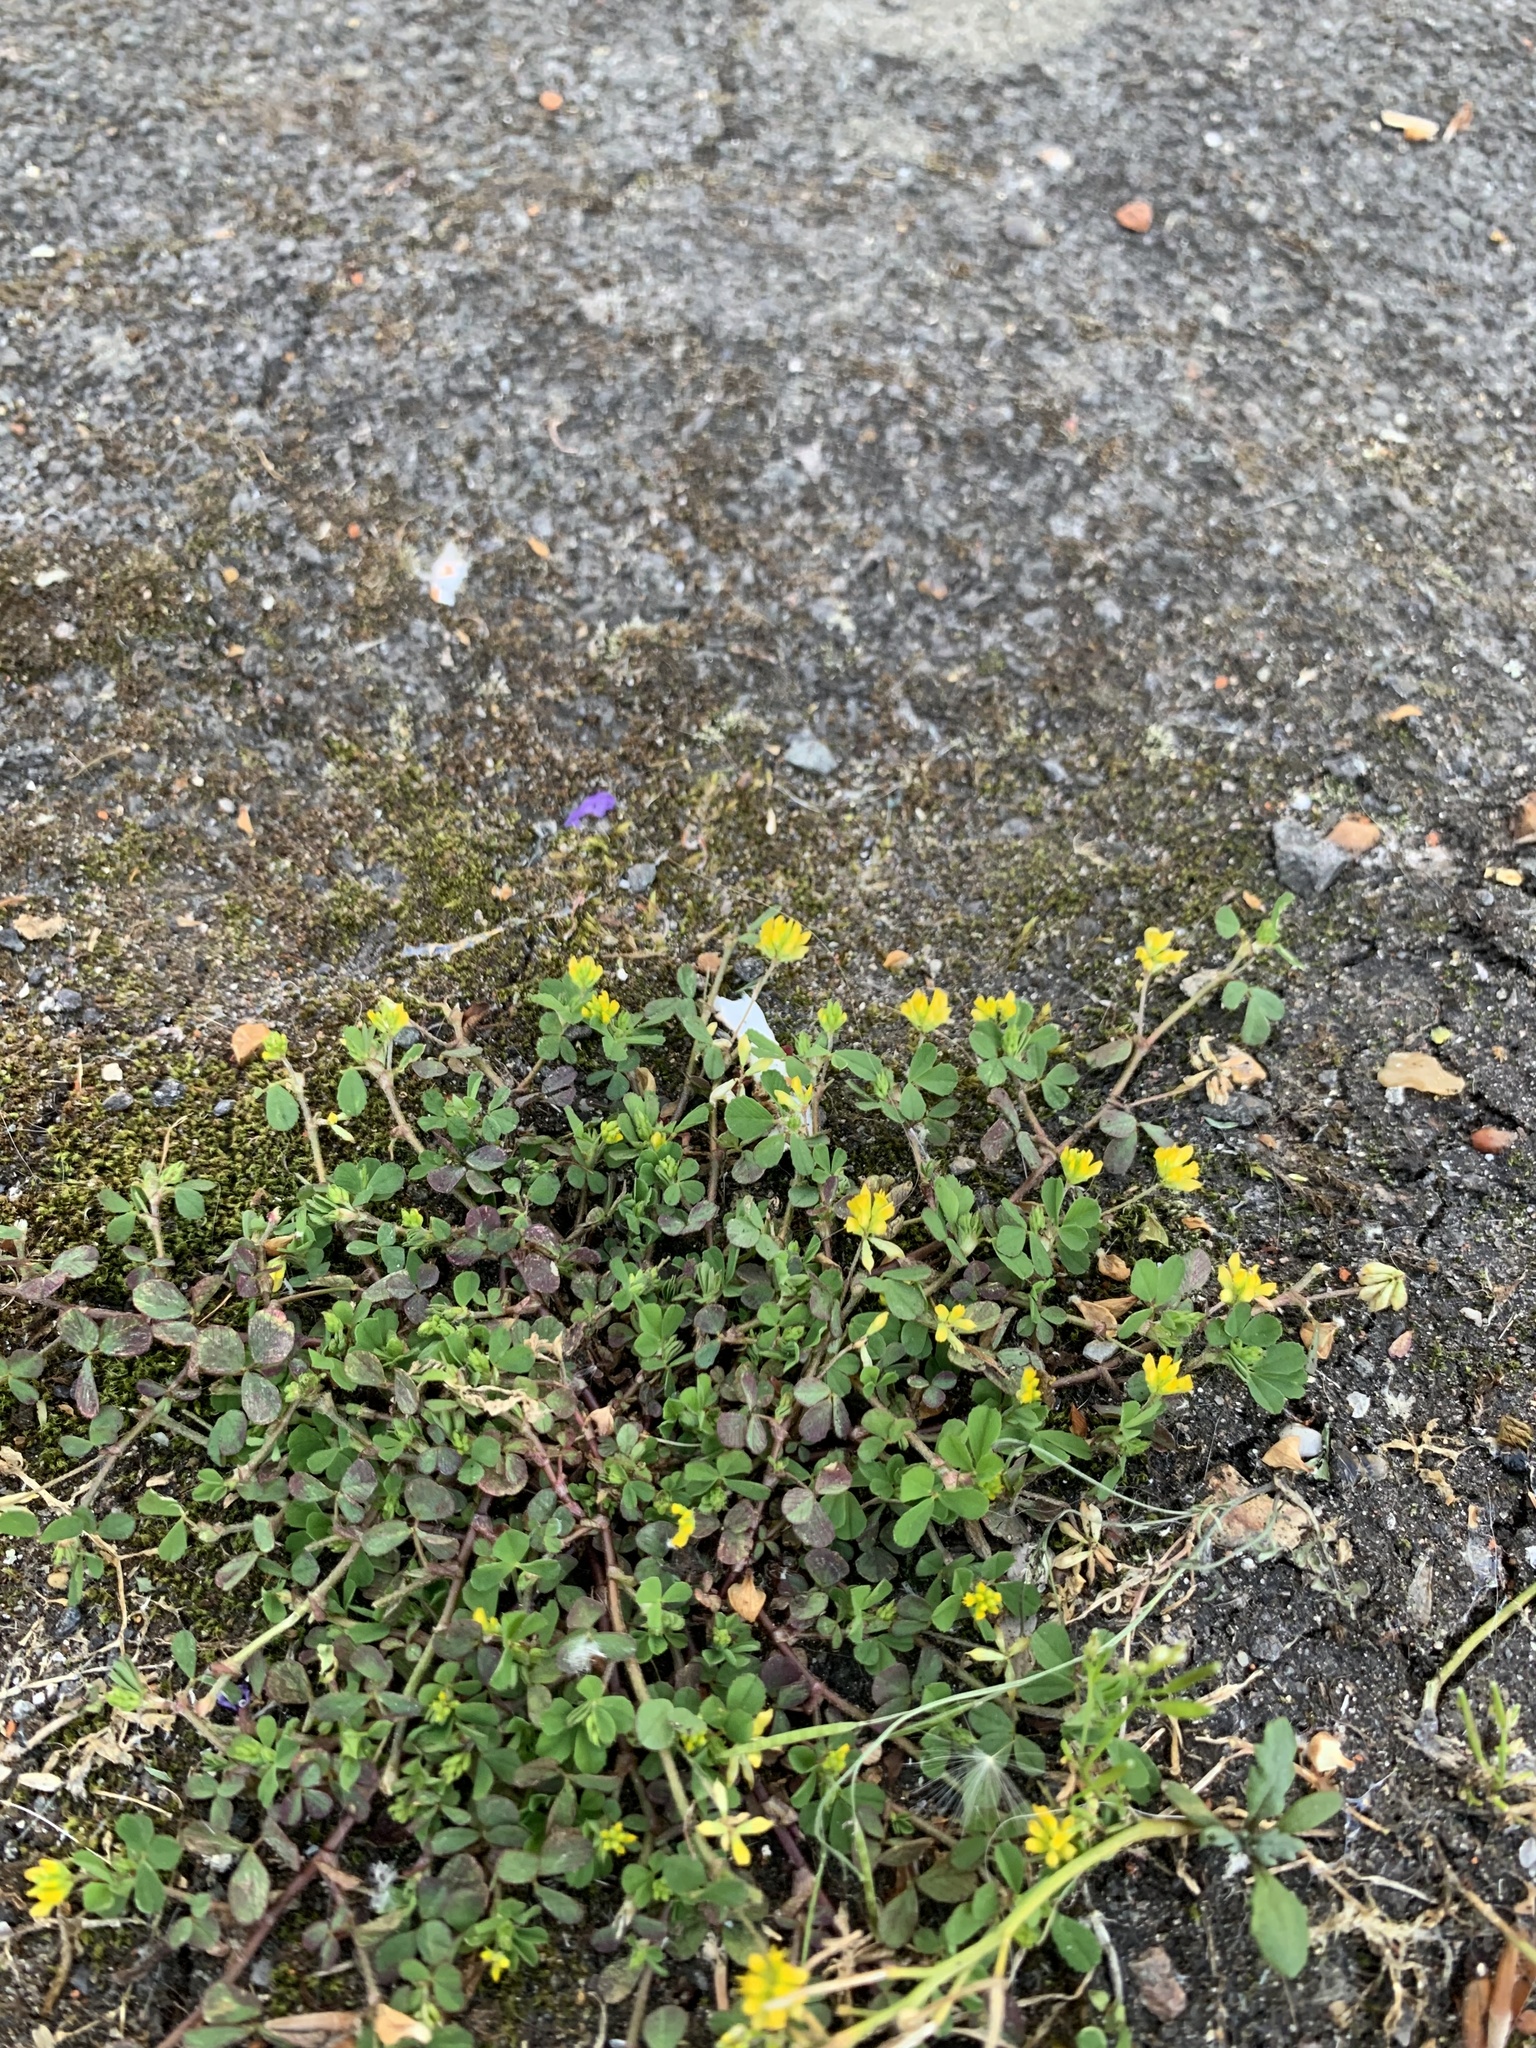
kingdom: Plantae
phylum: Tracheophyta
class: Magnoliopsida
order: Fabales
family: Fabaceae
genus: Trifolium
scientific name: Trifolium dubium
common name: Suckling clover
